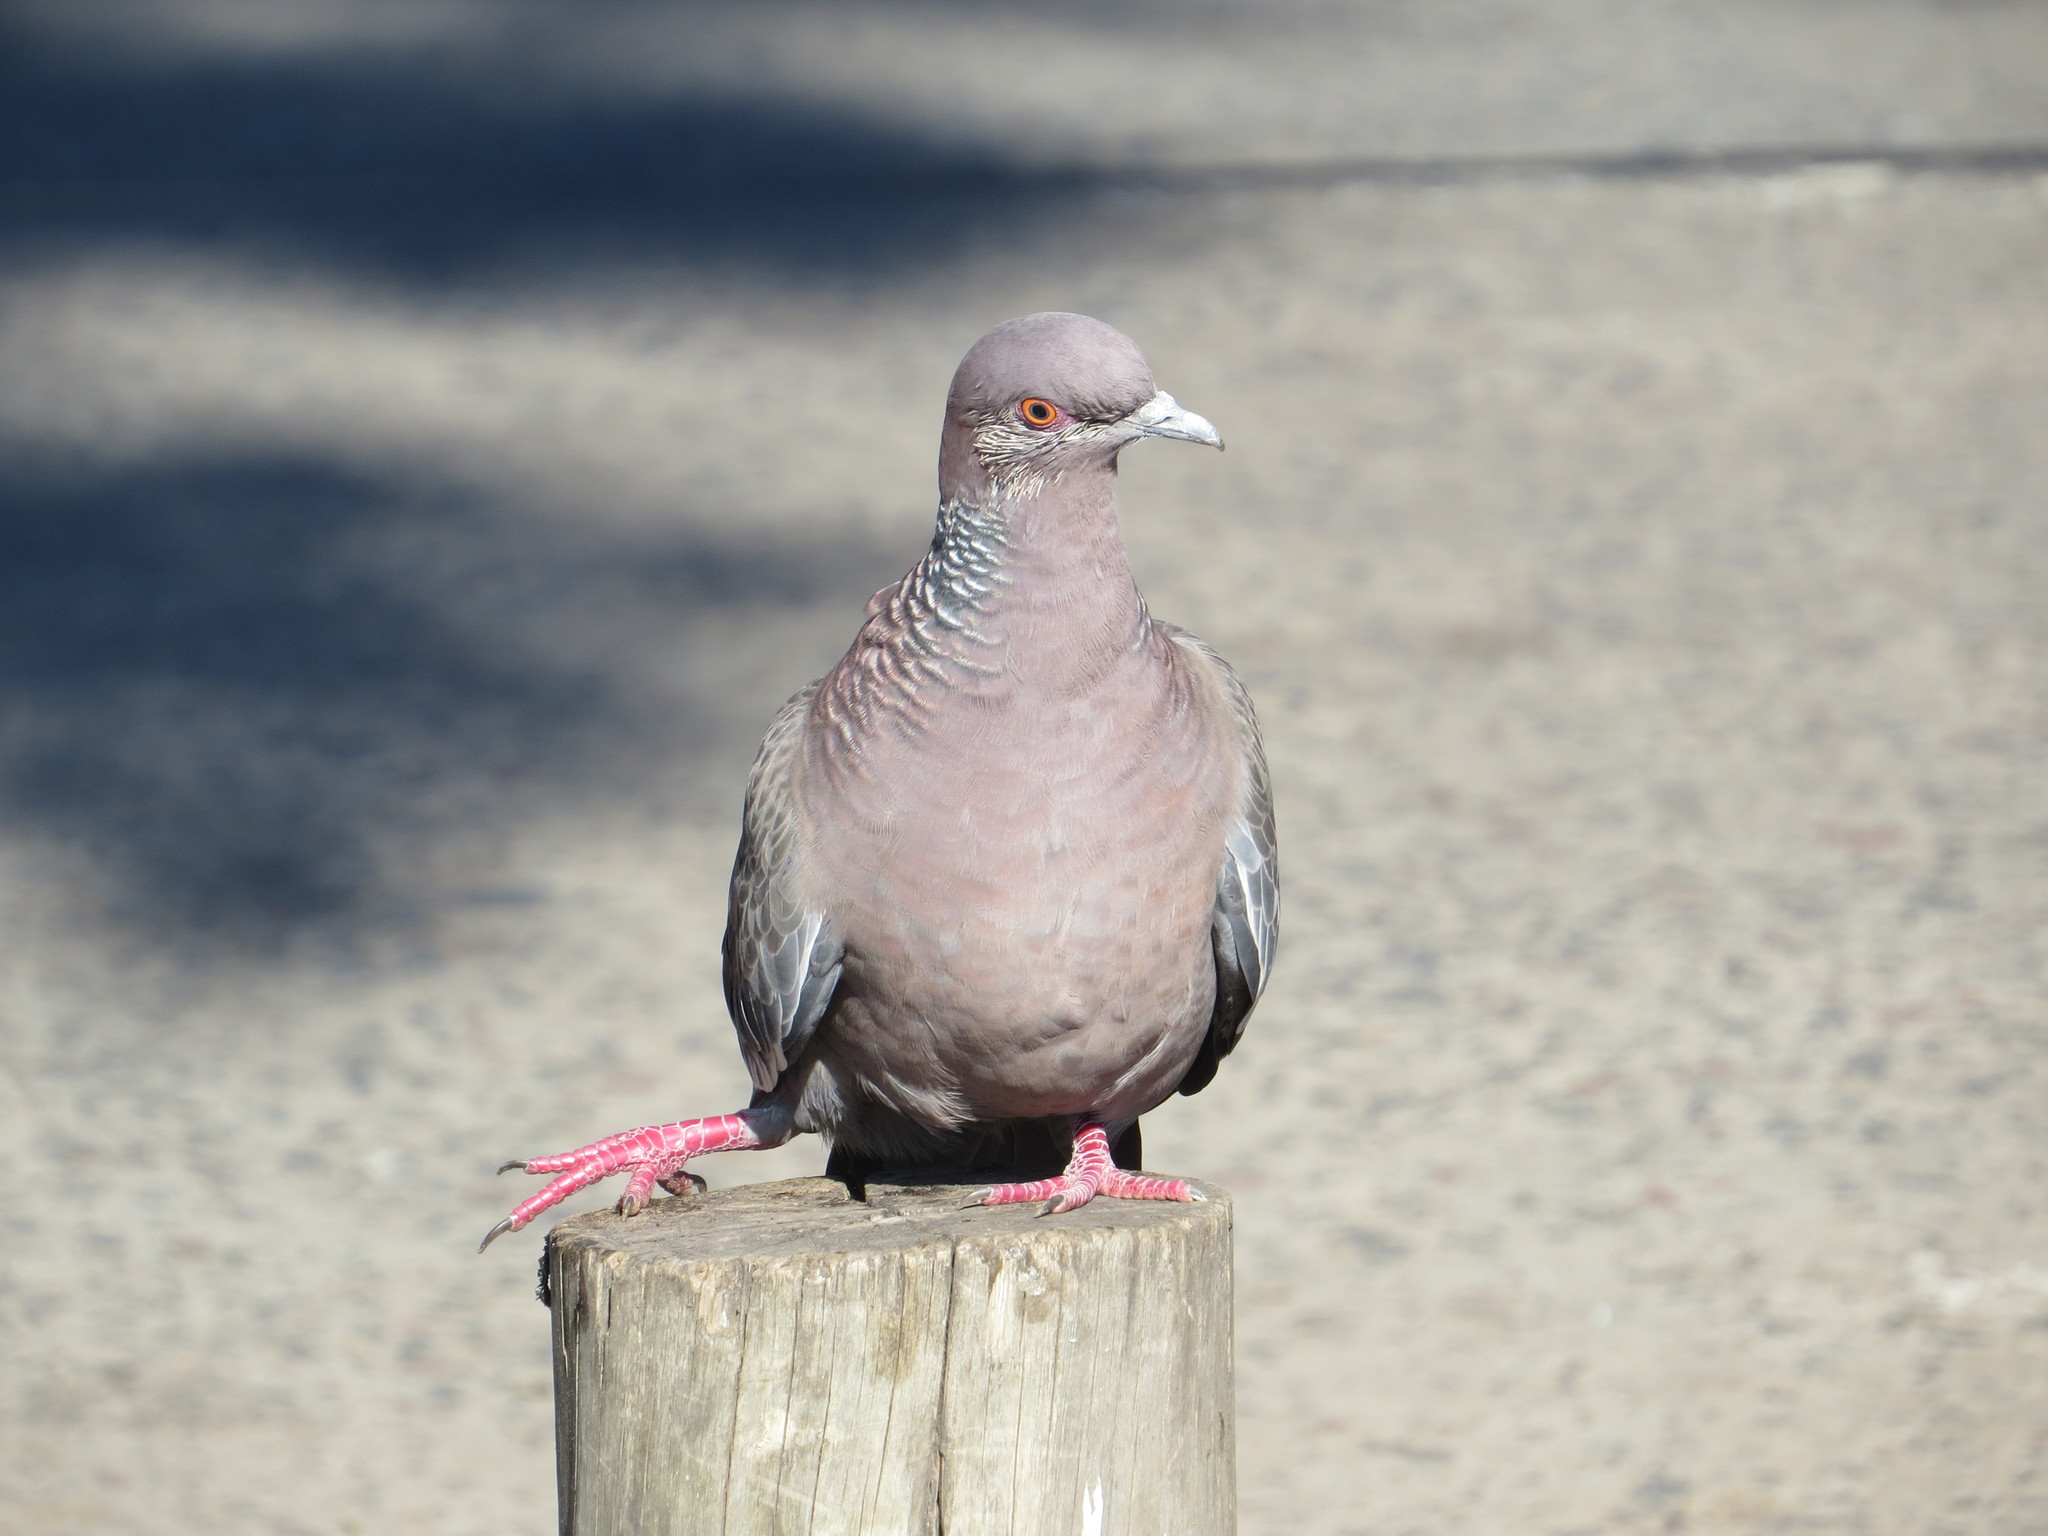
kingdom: Animalia
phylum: Chordata
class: Aves
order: Columbiformes
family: Columbidae
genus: Patagioenas
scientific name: Patagioenas picazuro
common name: Picazuro pigeon
